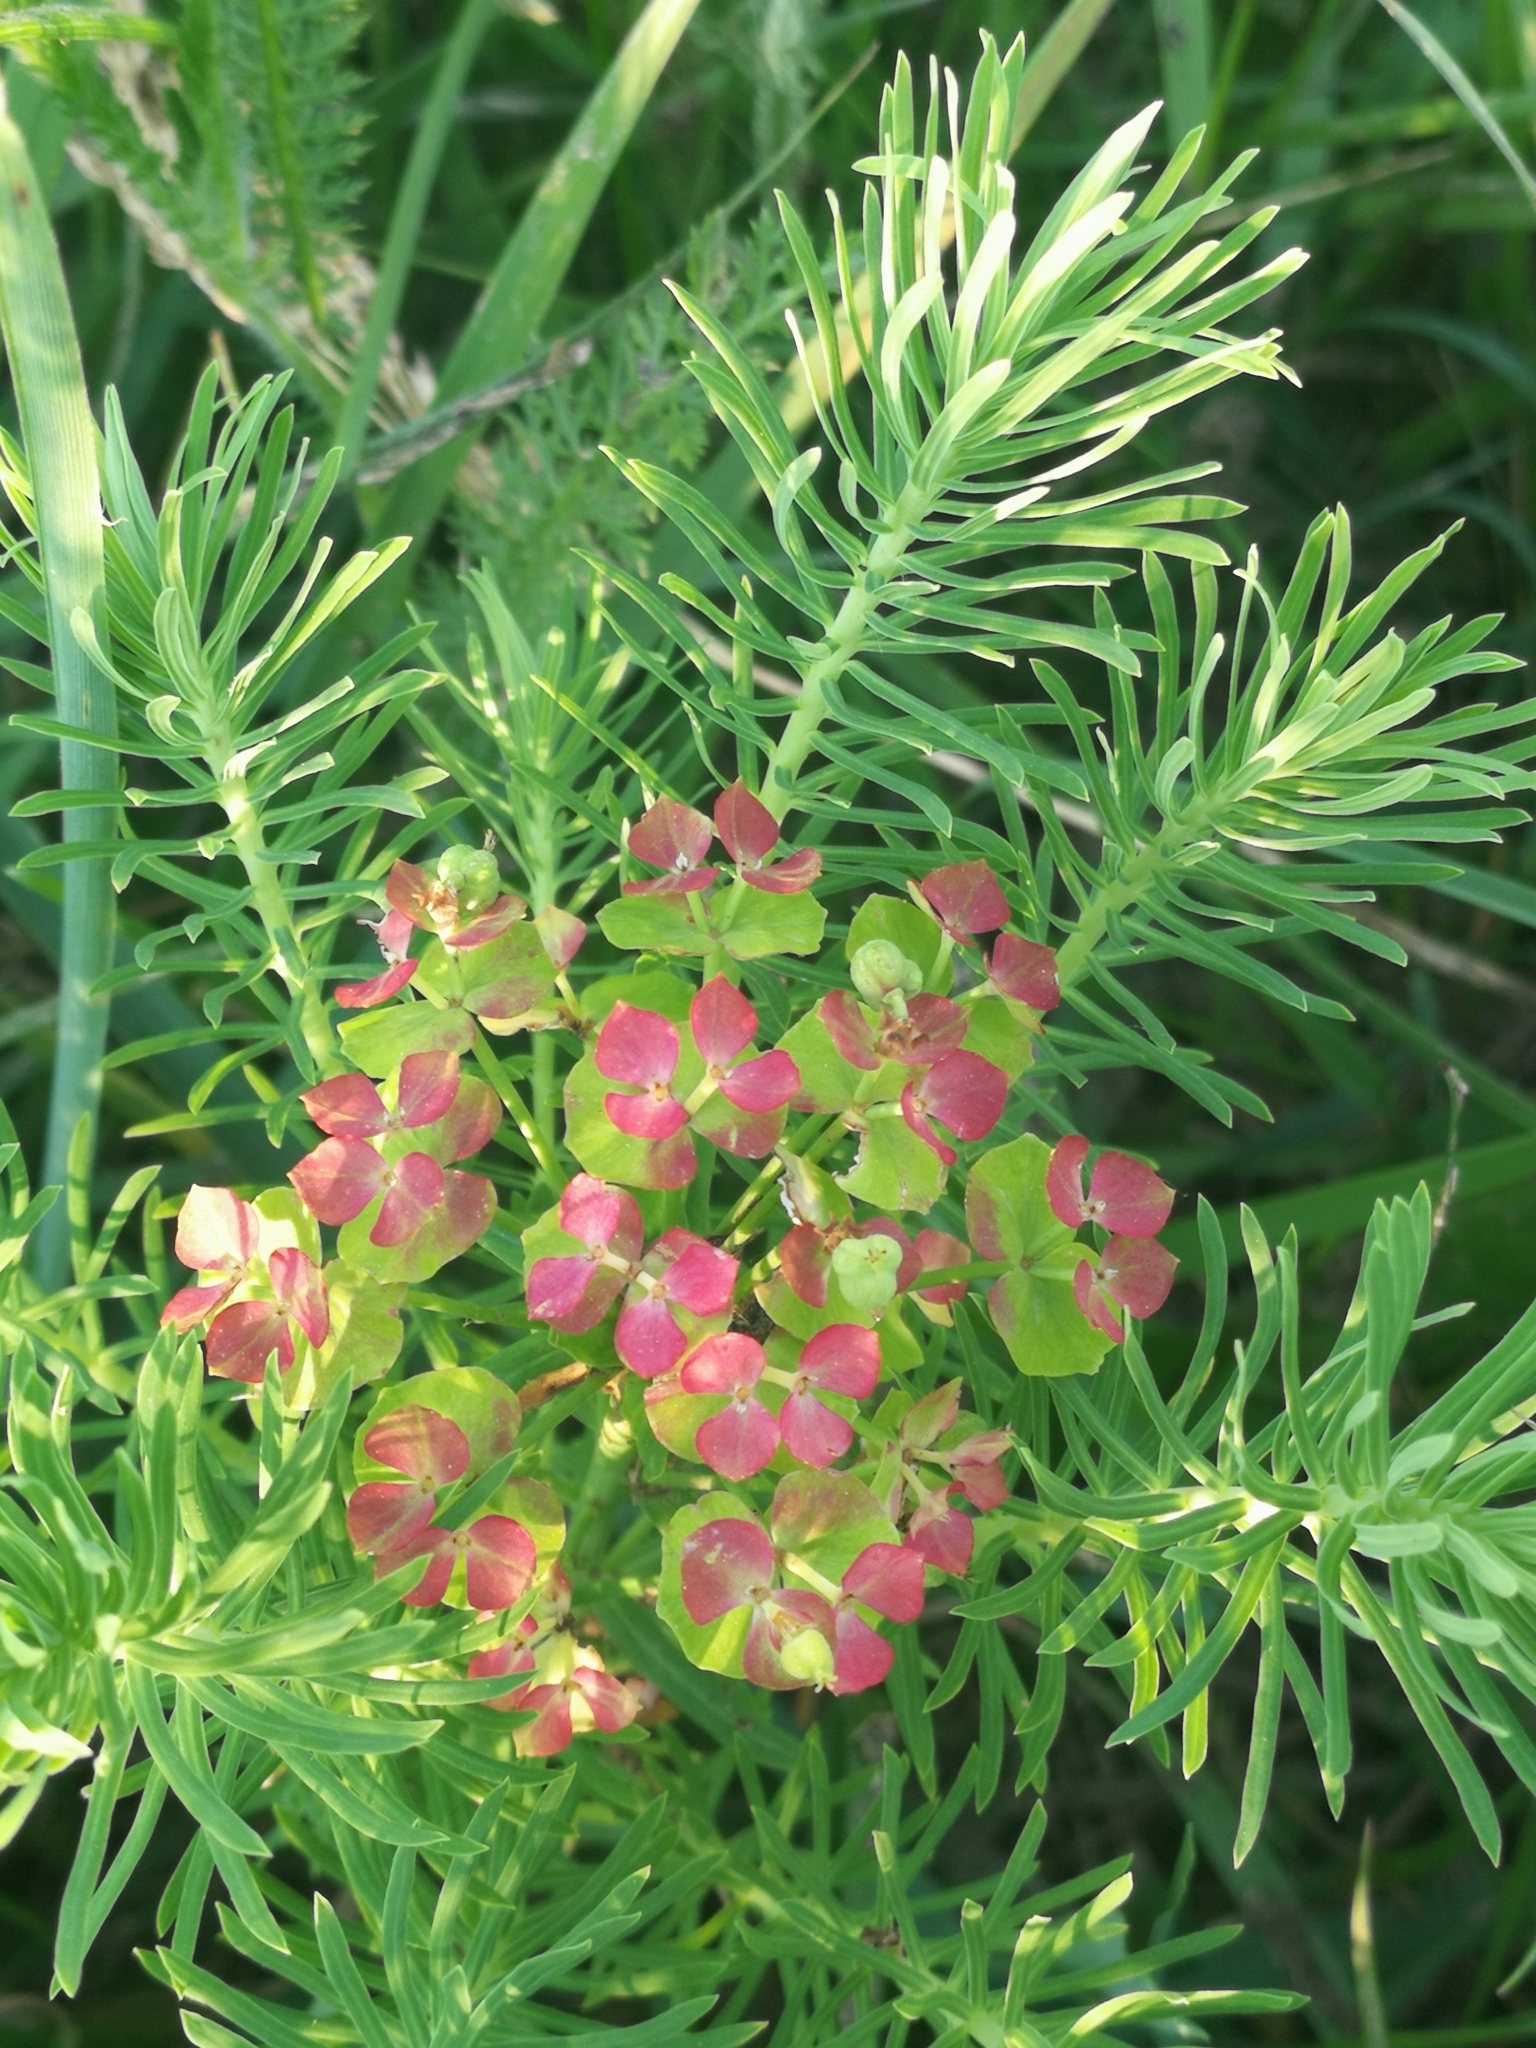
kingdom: Plantae
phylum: Tracheophyta
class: Magnoliopsida
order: Malpighiales
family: Euphorbiaceae
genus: Euphorbia
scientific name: Euphorbia cyparissias
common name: Cypress spurge
